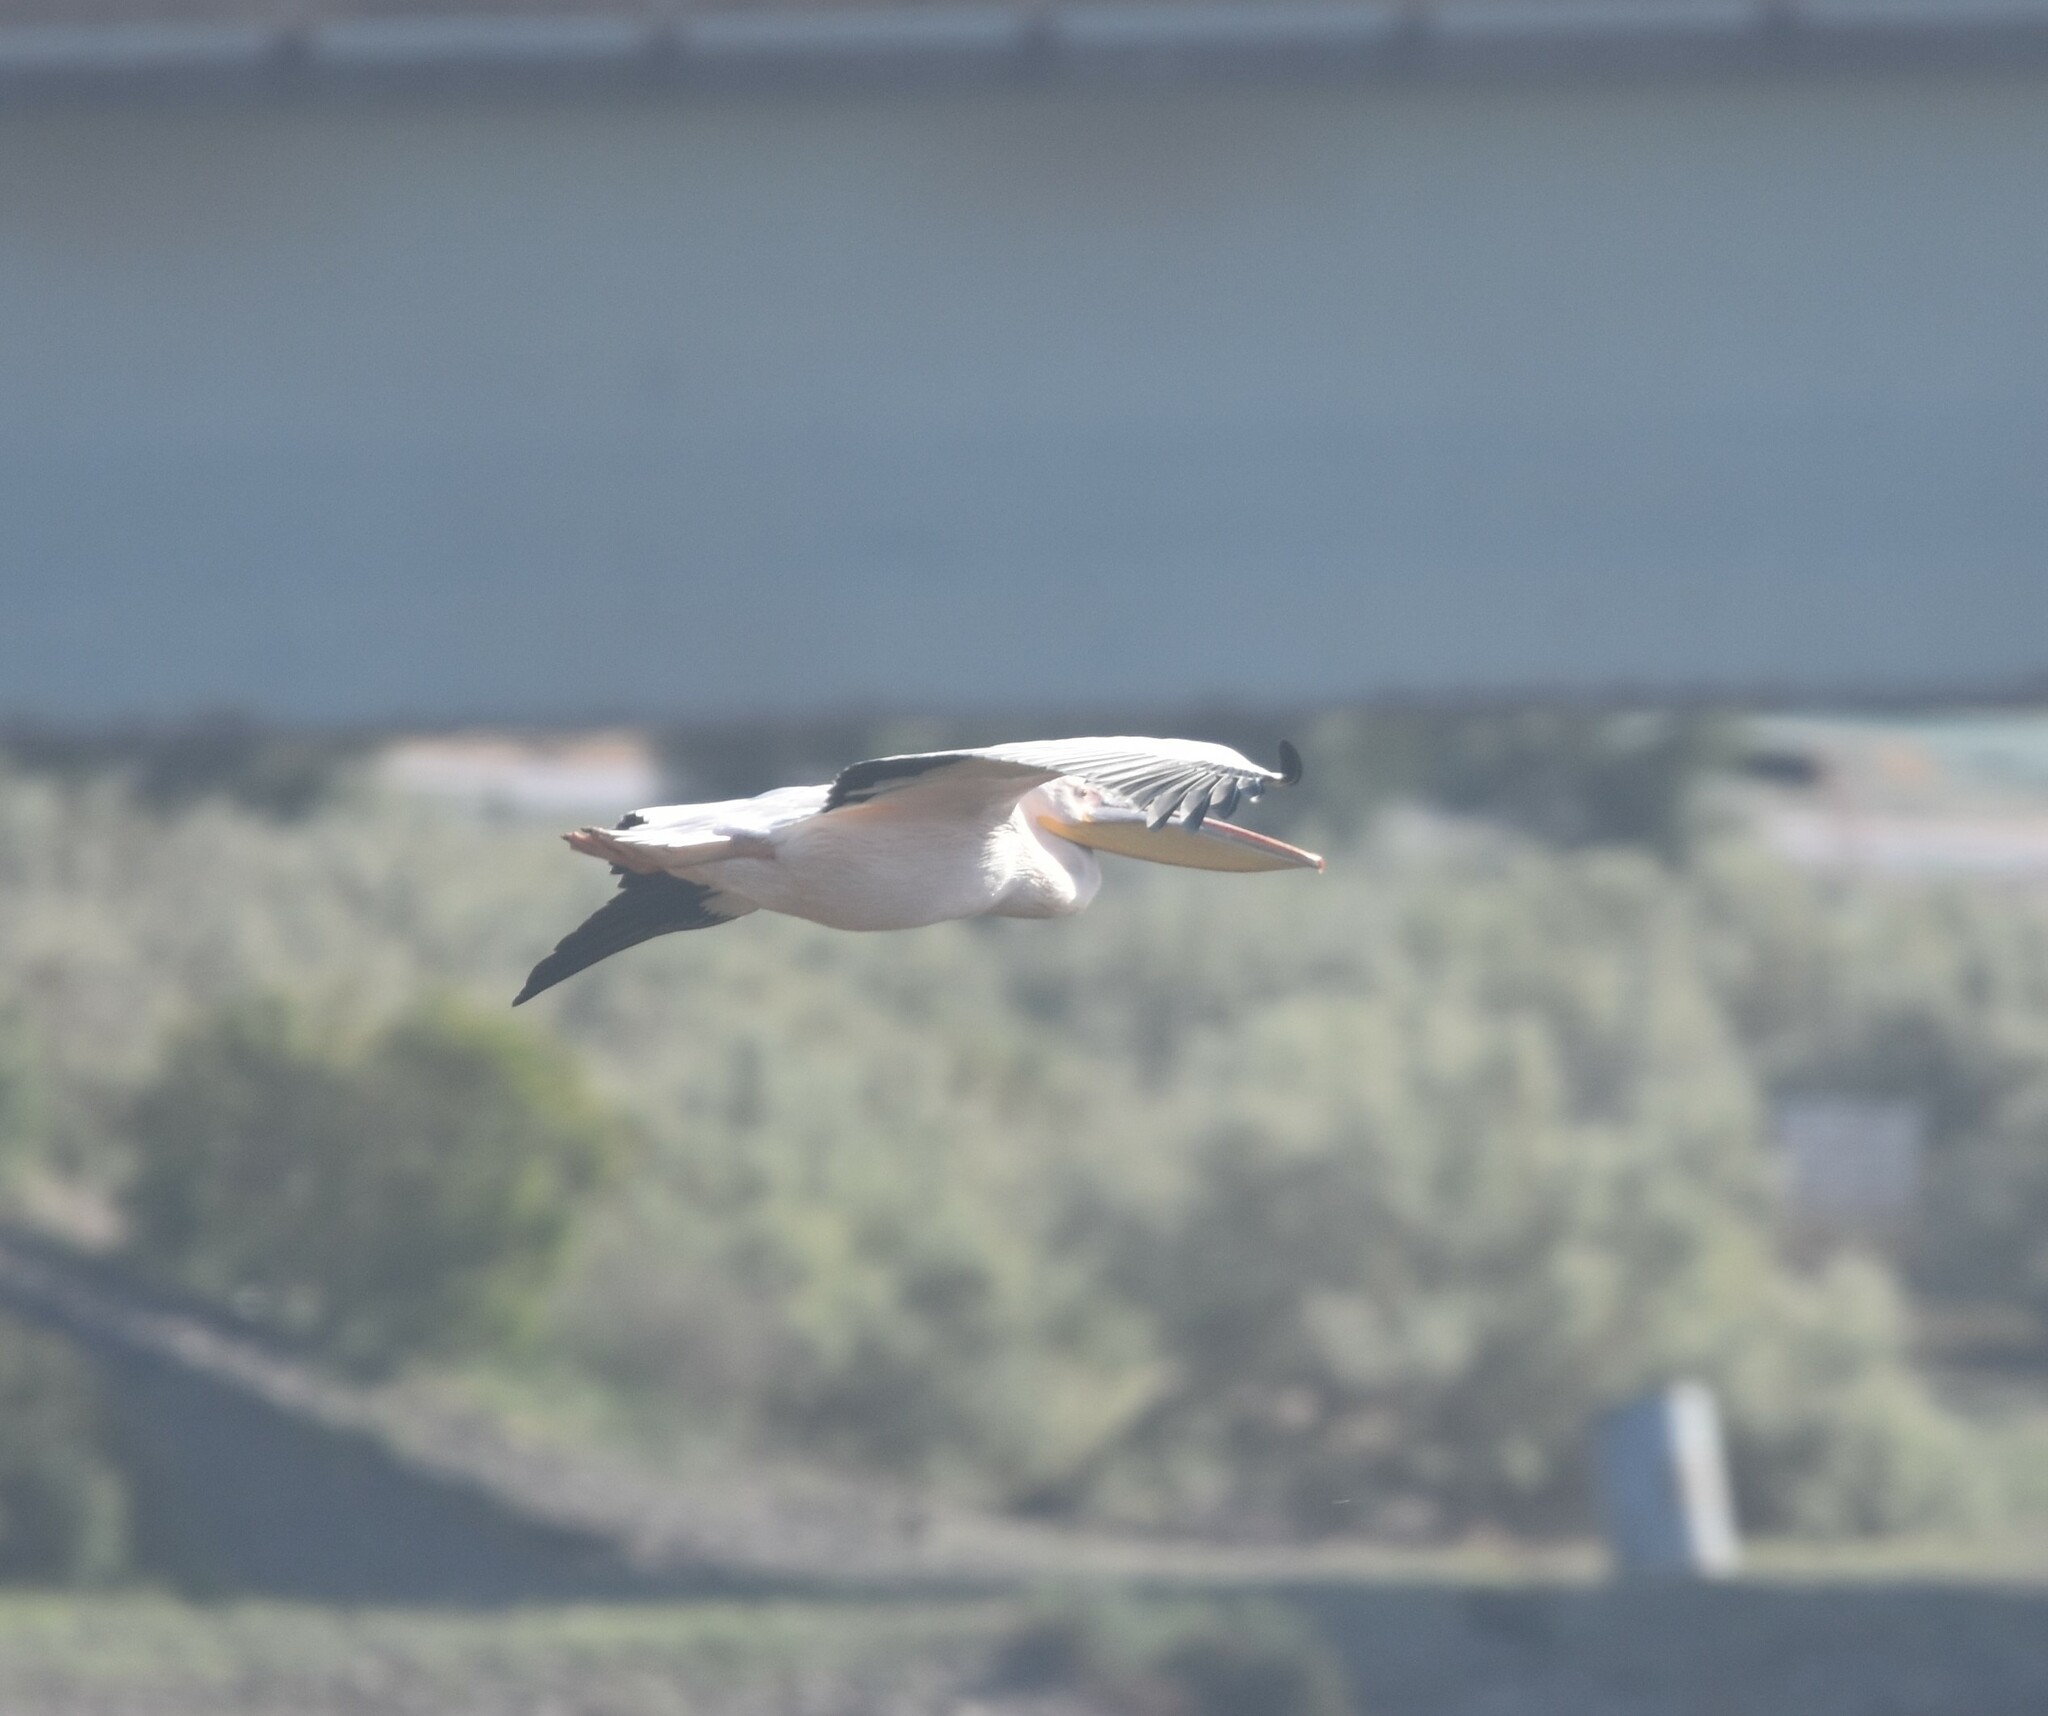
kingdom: Animalia
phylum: Chordata
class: Aves
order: Pelecaniformes
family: Pelecanidae
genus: Pelecanus
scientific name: Pelecanus onocrotalus
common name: Great white pelican
